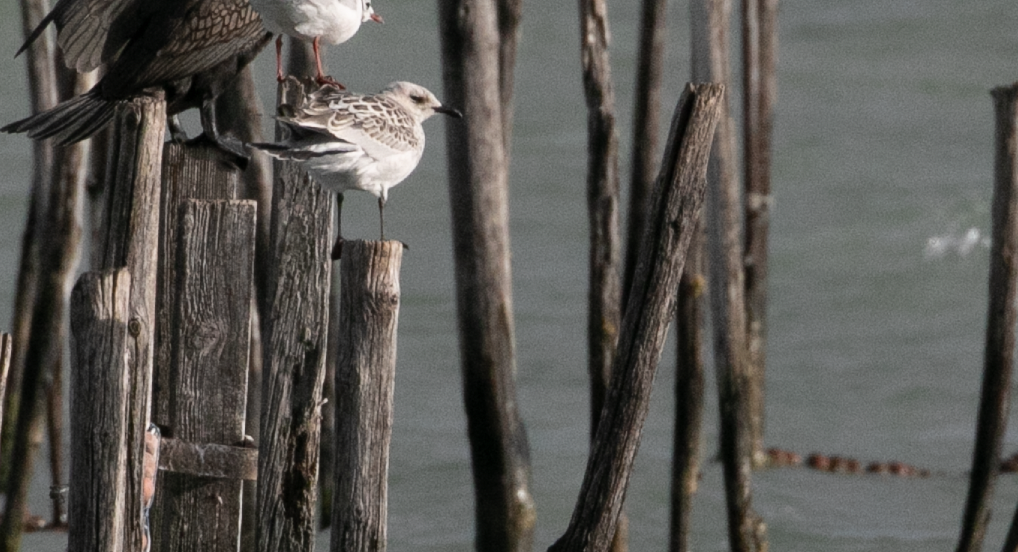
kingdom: Animalia
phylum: Chordata
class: Aves
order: Charadriiformes
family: Laridae
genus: Ichthyaetus
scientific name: Ichthyaetus melanocephalus
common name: Mediterranean gull
